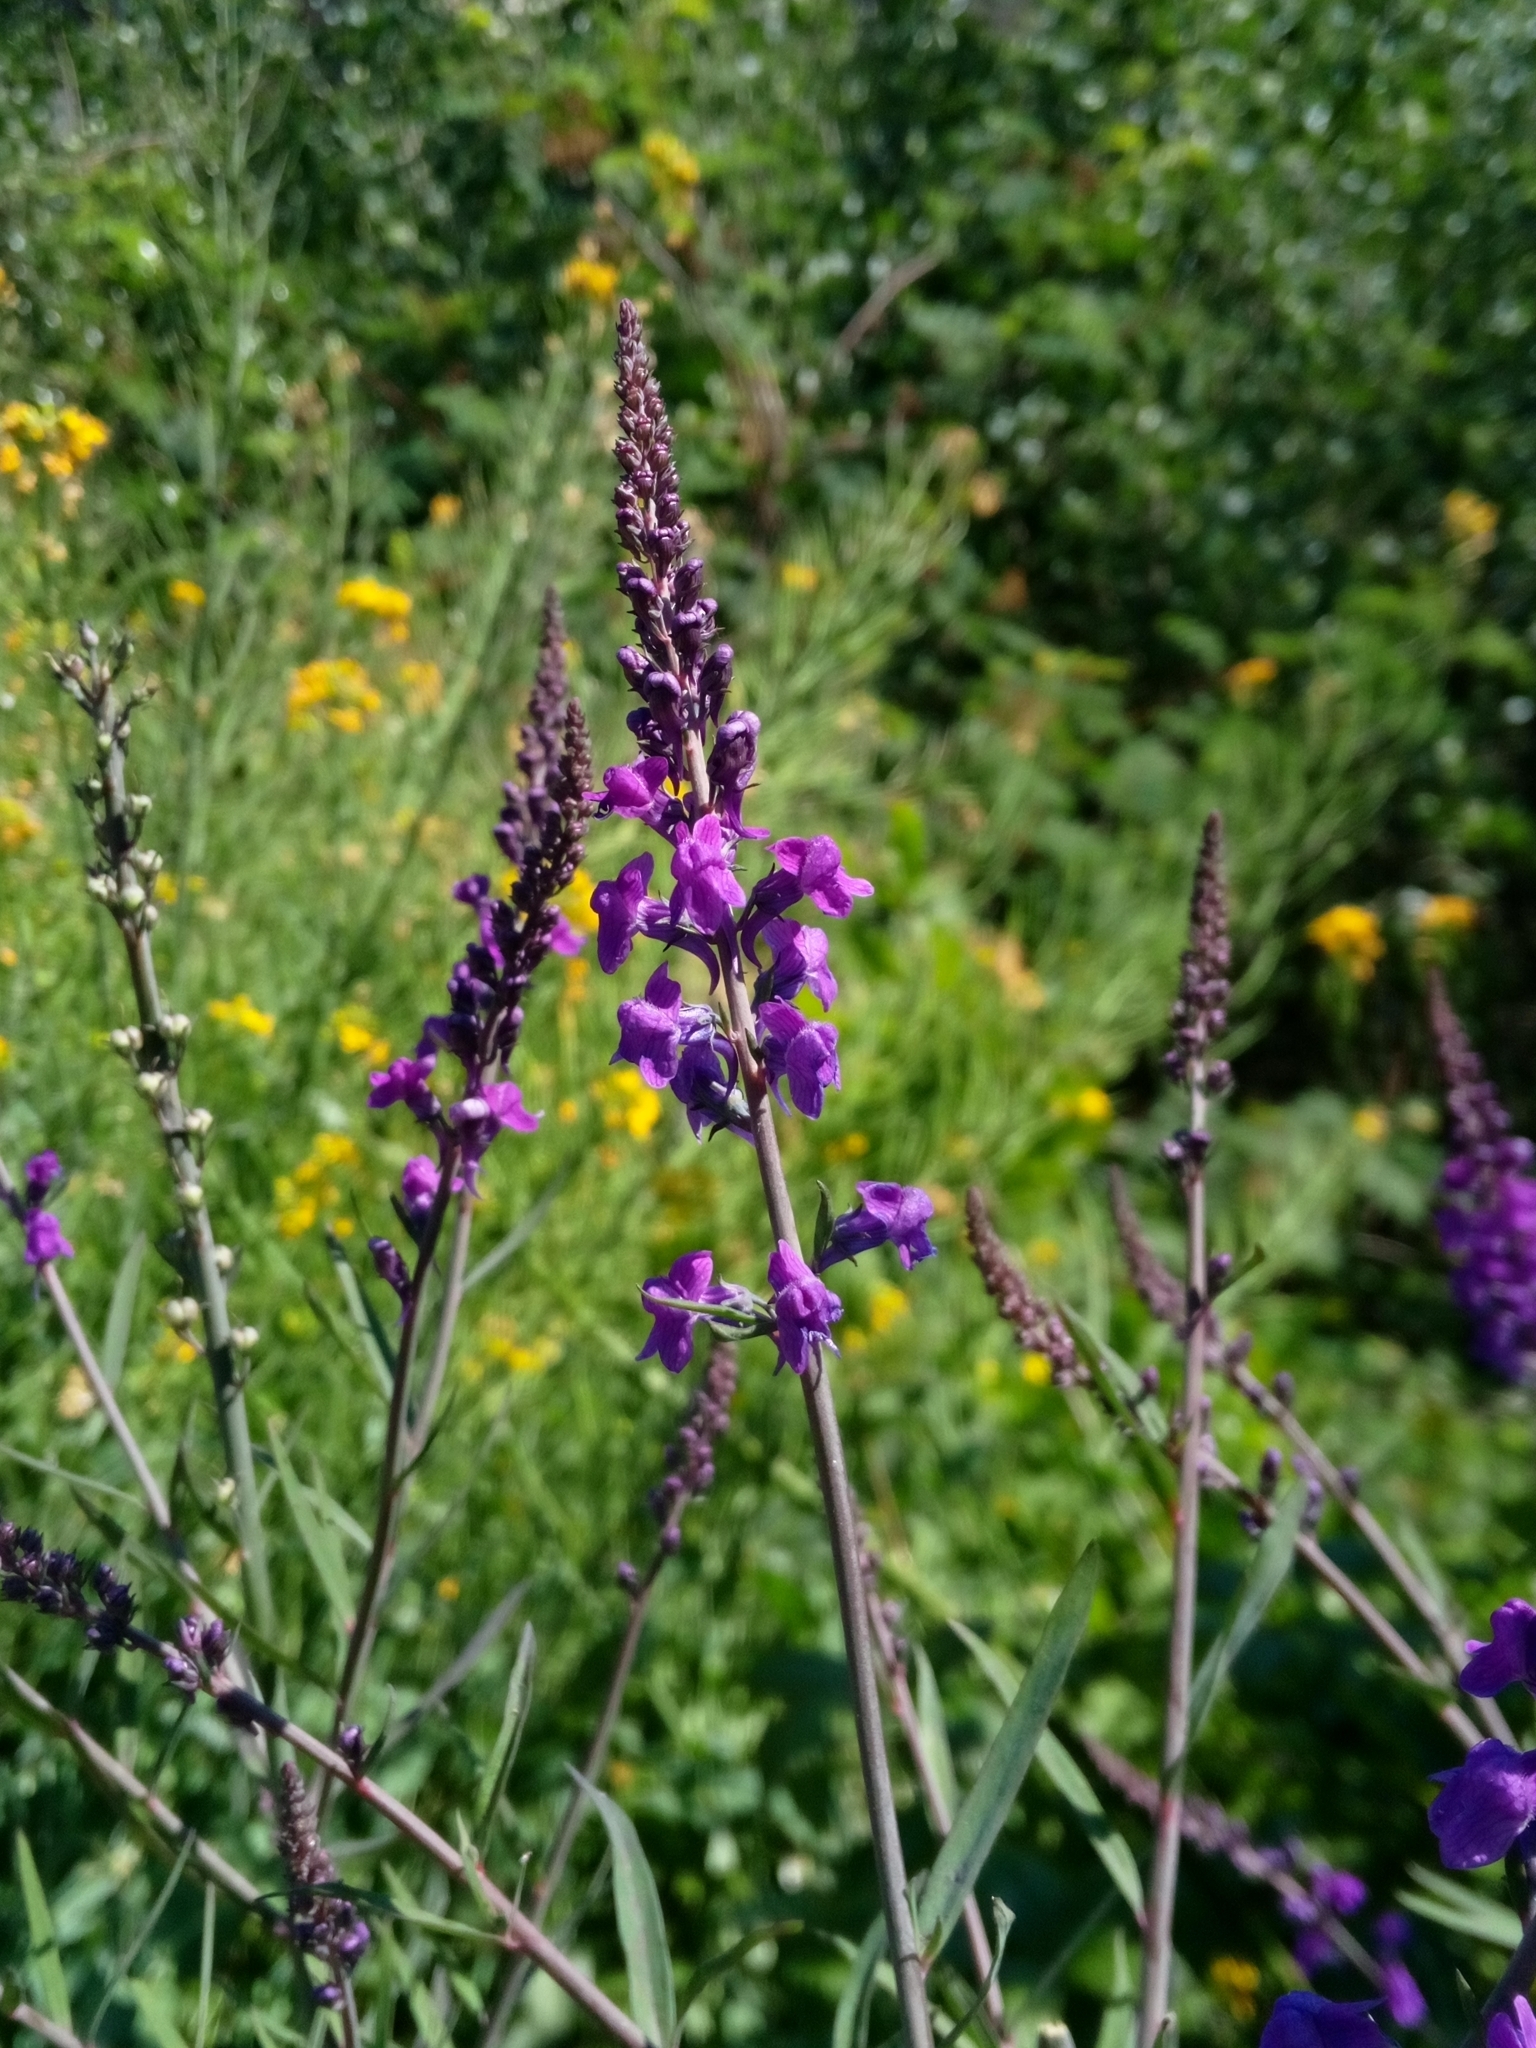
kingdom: Plantae
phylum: Tracheophyta
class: Magnoliopsida
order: Lamiales
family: Plantaginaceae
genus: Linaria
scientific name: Linaria purpurea
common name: Purple toadflax
